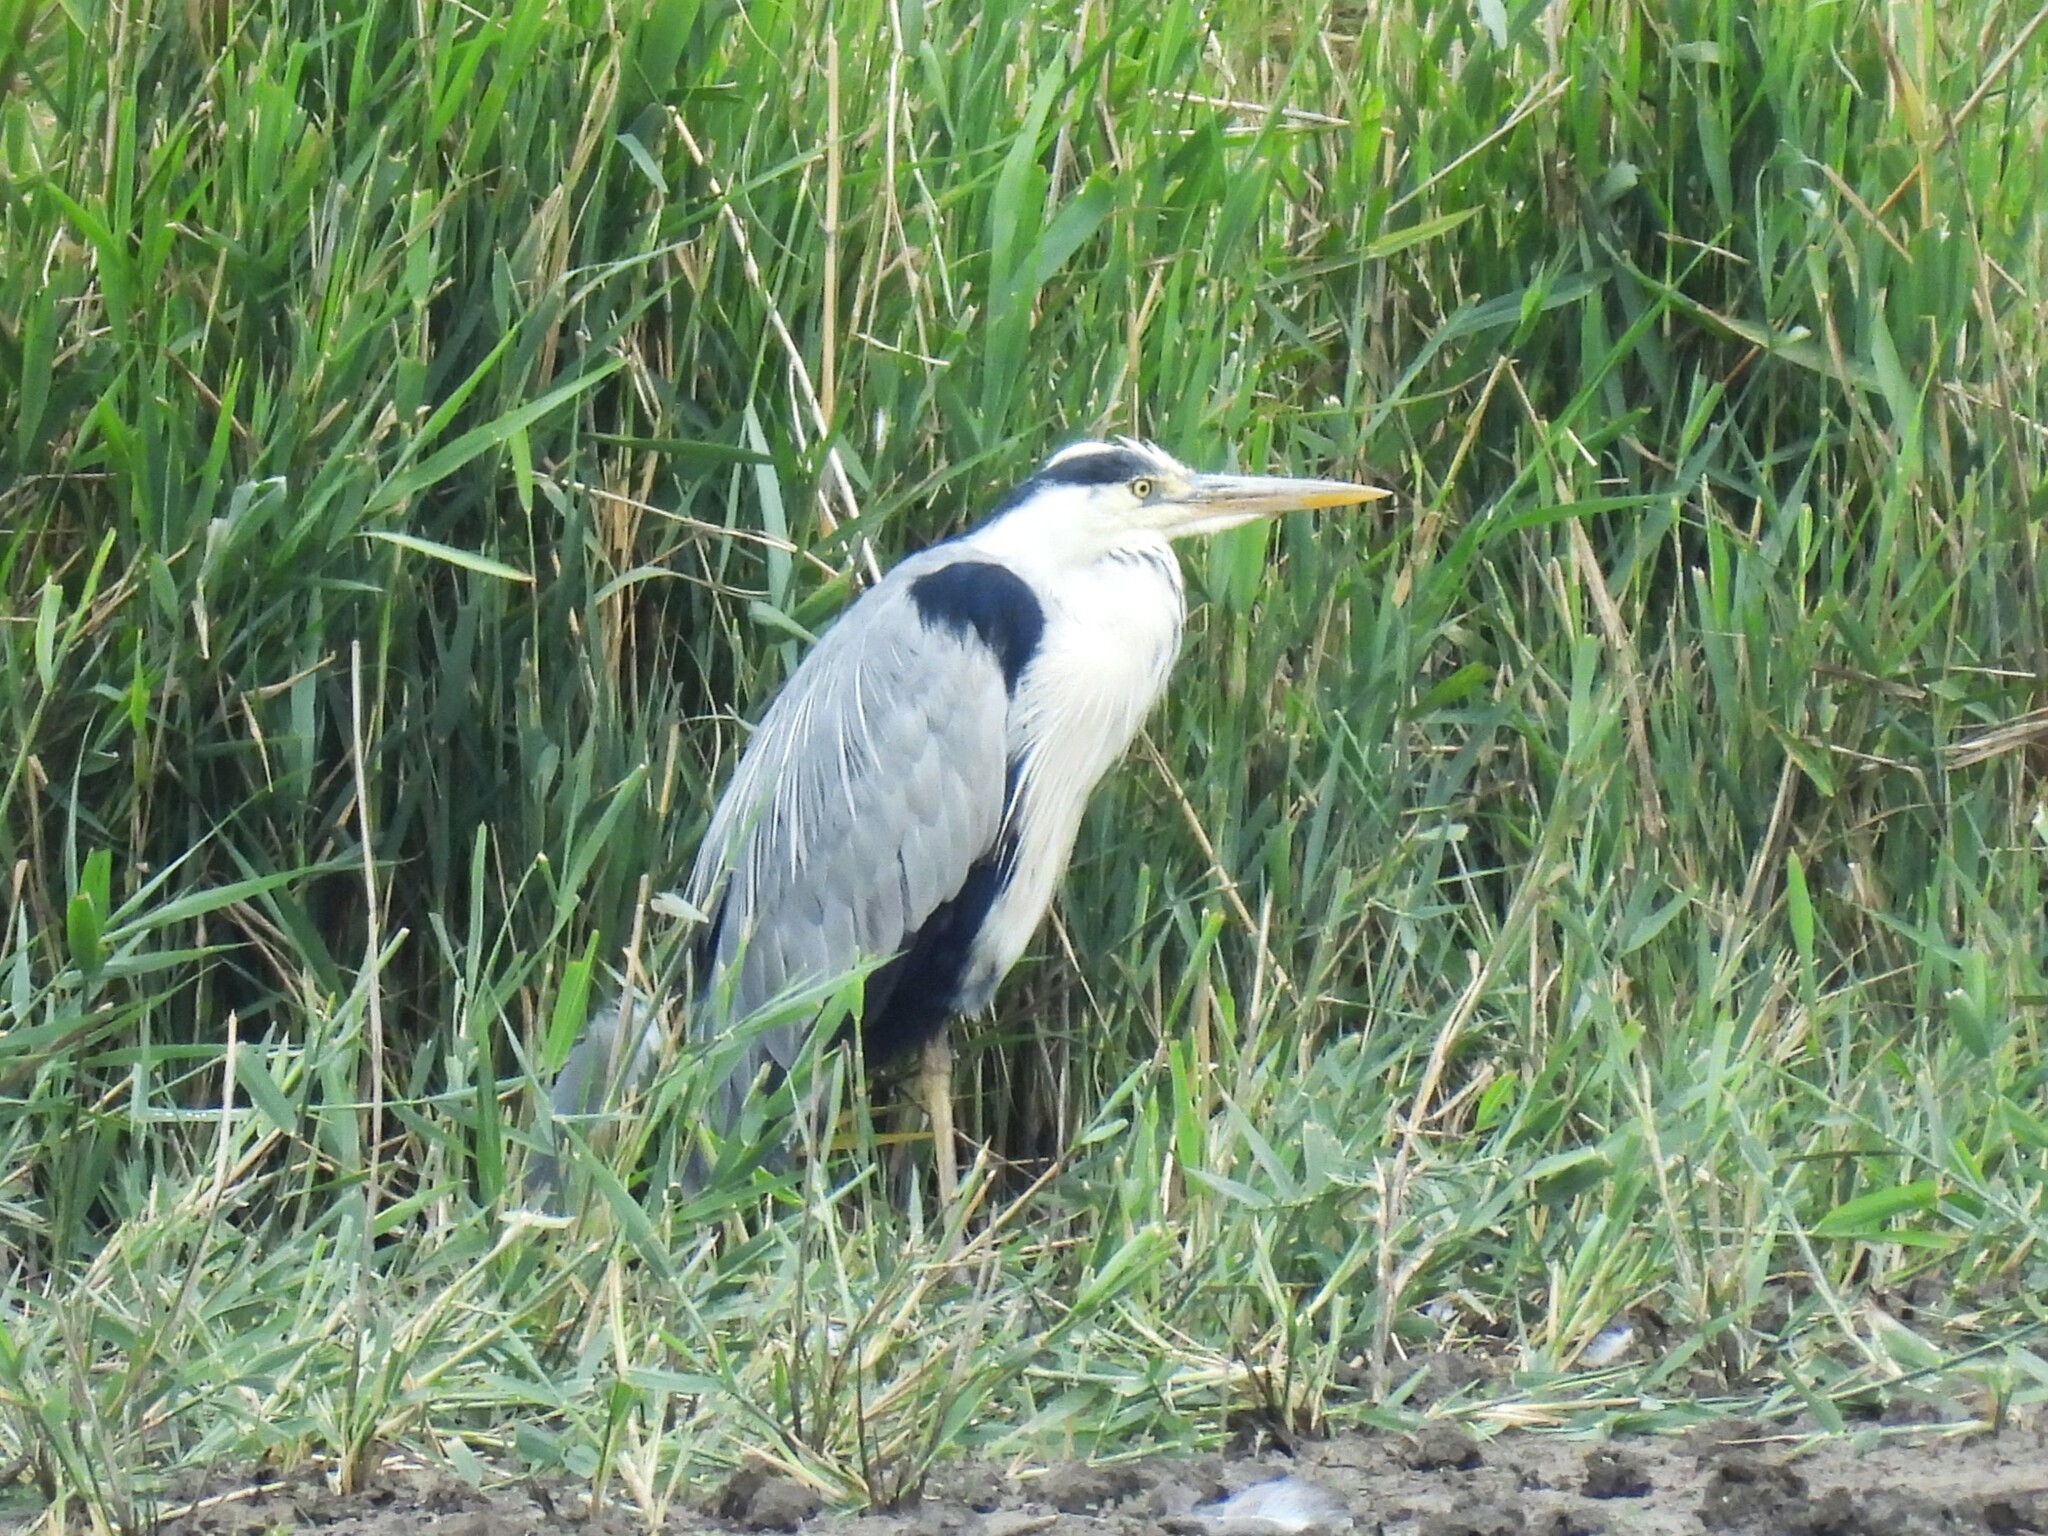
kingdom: Animalia
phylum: Chordata
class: Aves
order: Pelecaniformes
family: Ardeidae
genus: Ardea
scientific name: Ardea cinerea
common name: Grey heron
